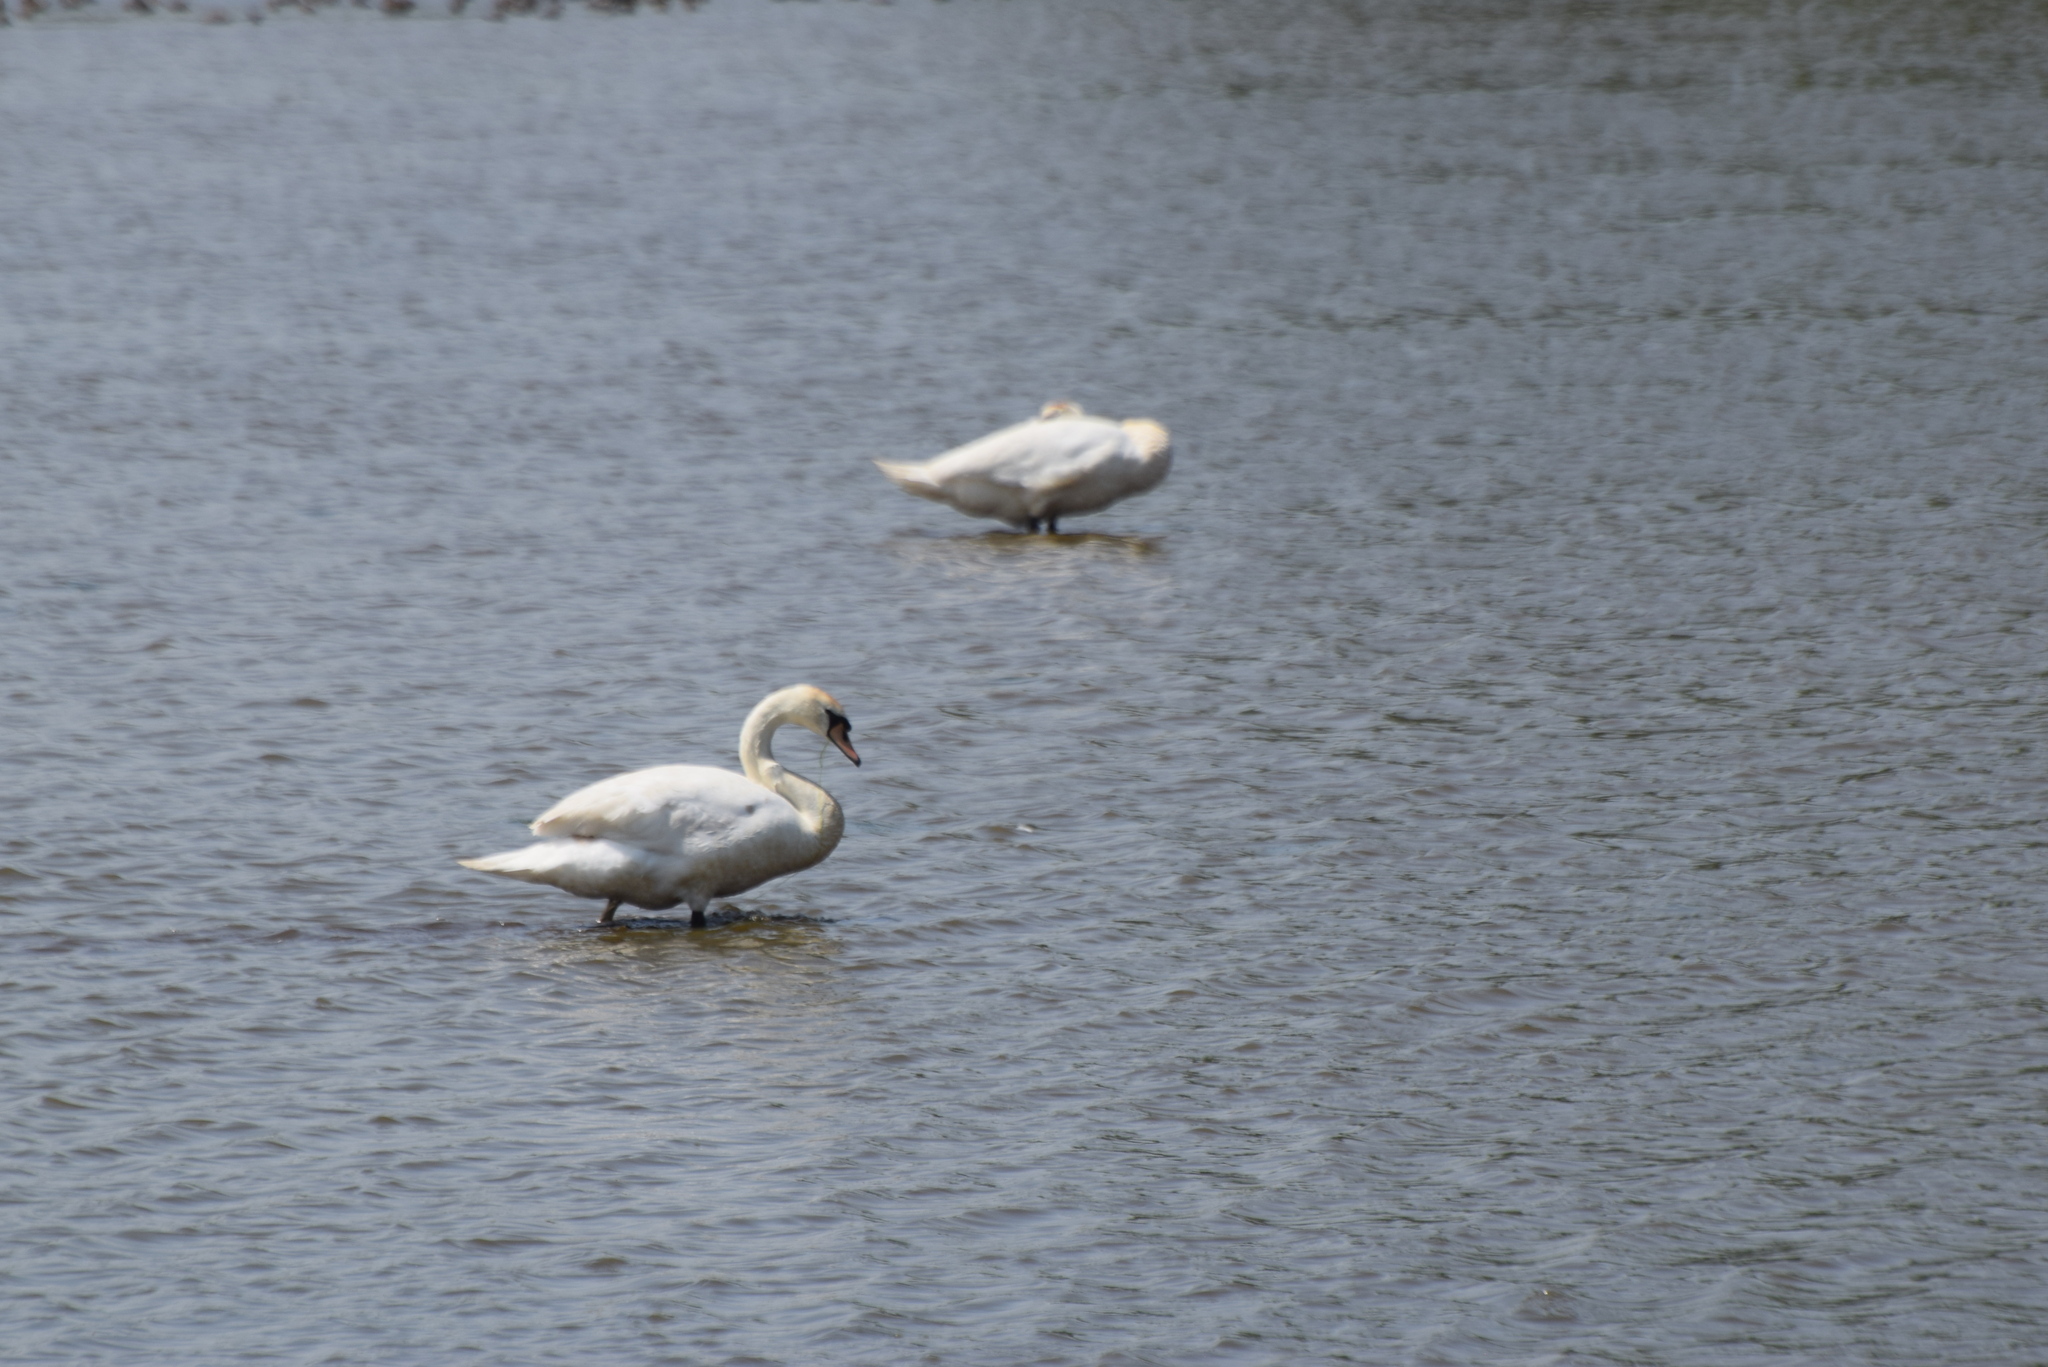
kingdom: Animalia
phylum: Chordata
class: Aves
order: Anseriformes
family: Anatidae
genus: Cygnus
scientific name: Cygnus olor
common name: Mute swan
